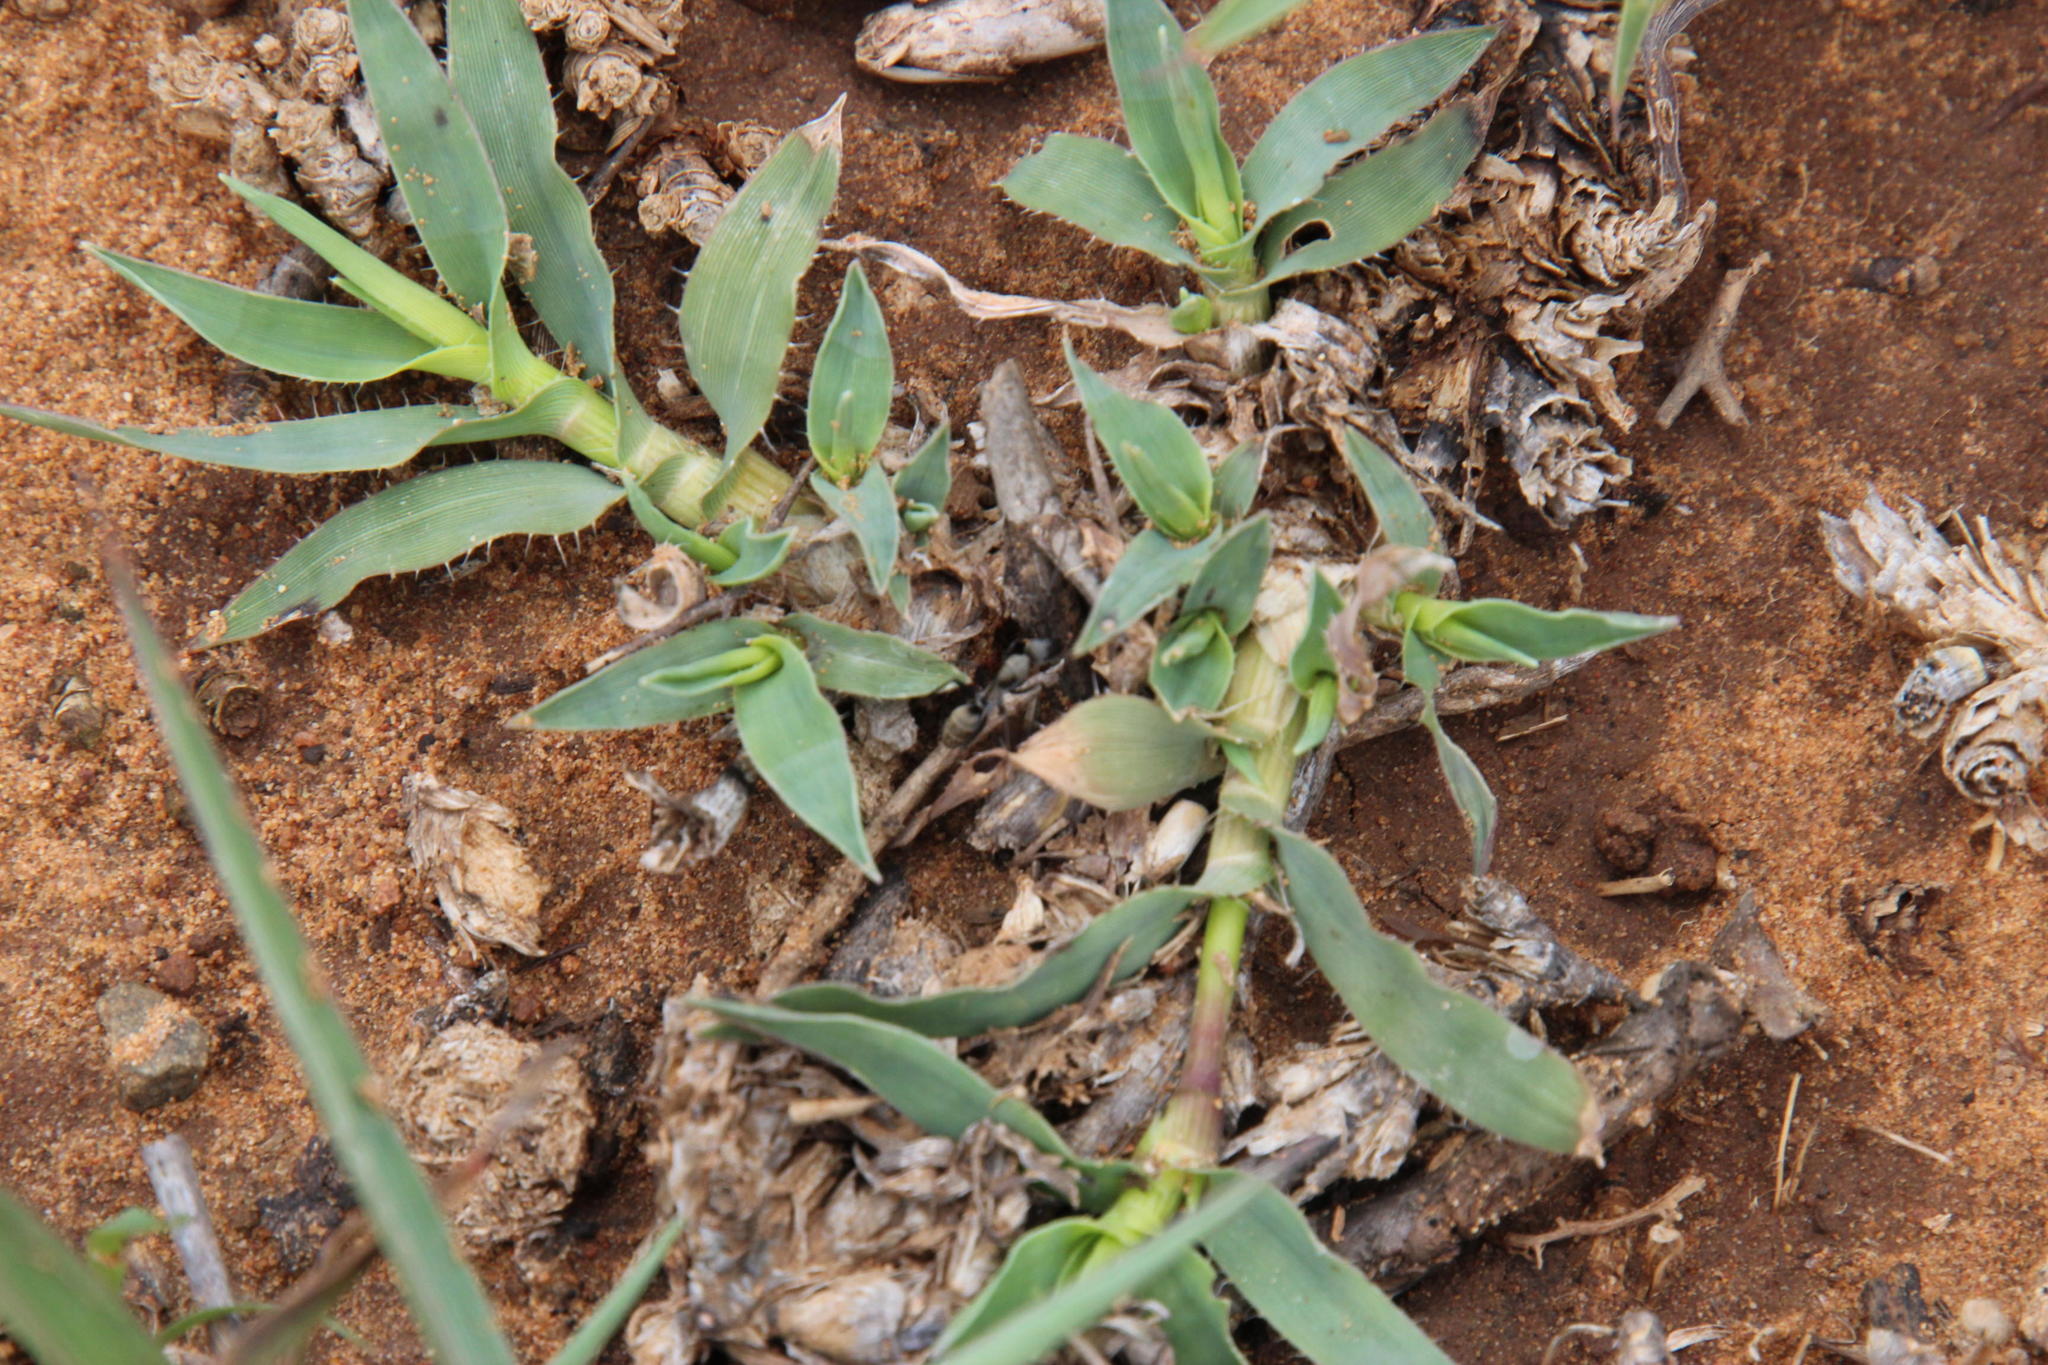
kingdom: Plantae
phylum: Tracheophyta
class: Liliopsida
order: Poales
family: Poaceae
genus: Tragus
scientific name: Tragus koelerioides
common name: Creeping carrot-seed grass
